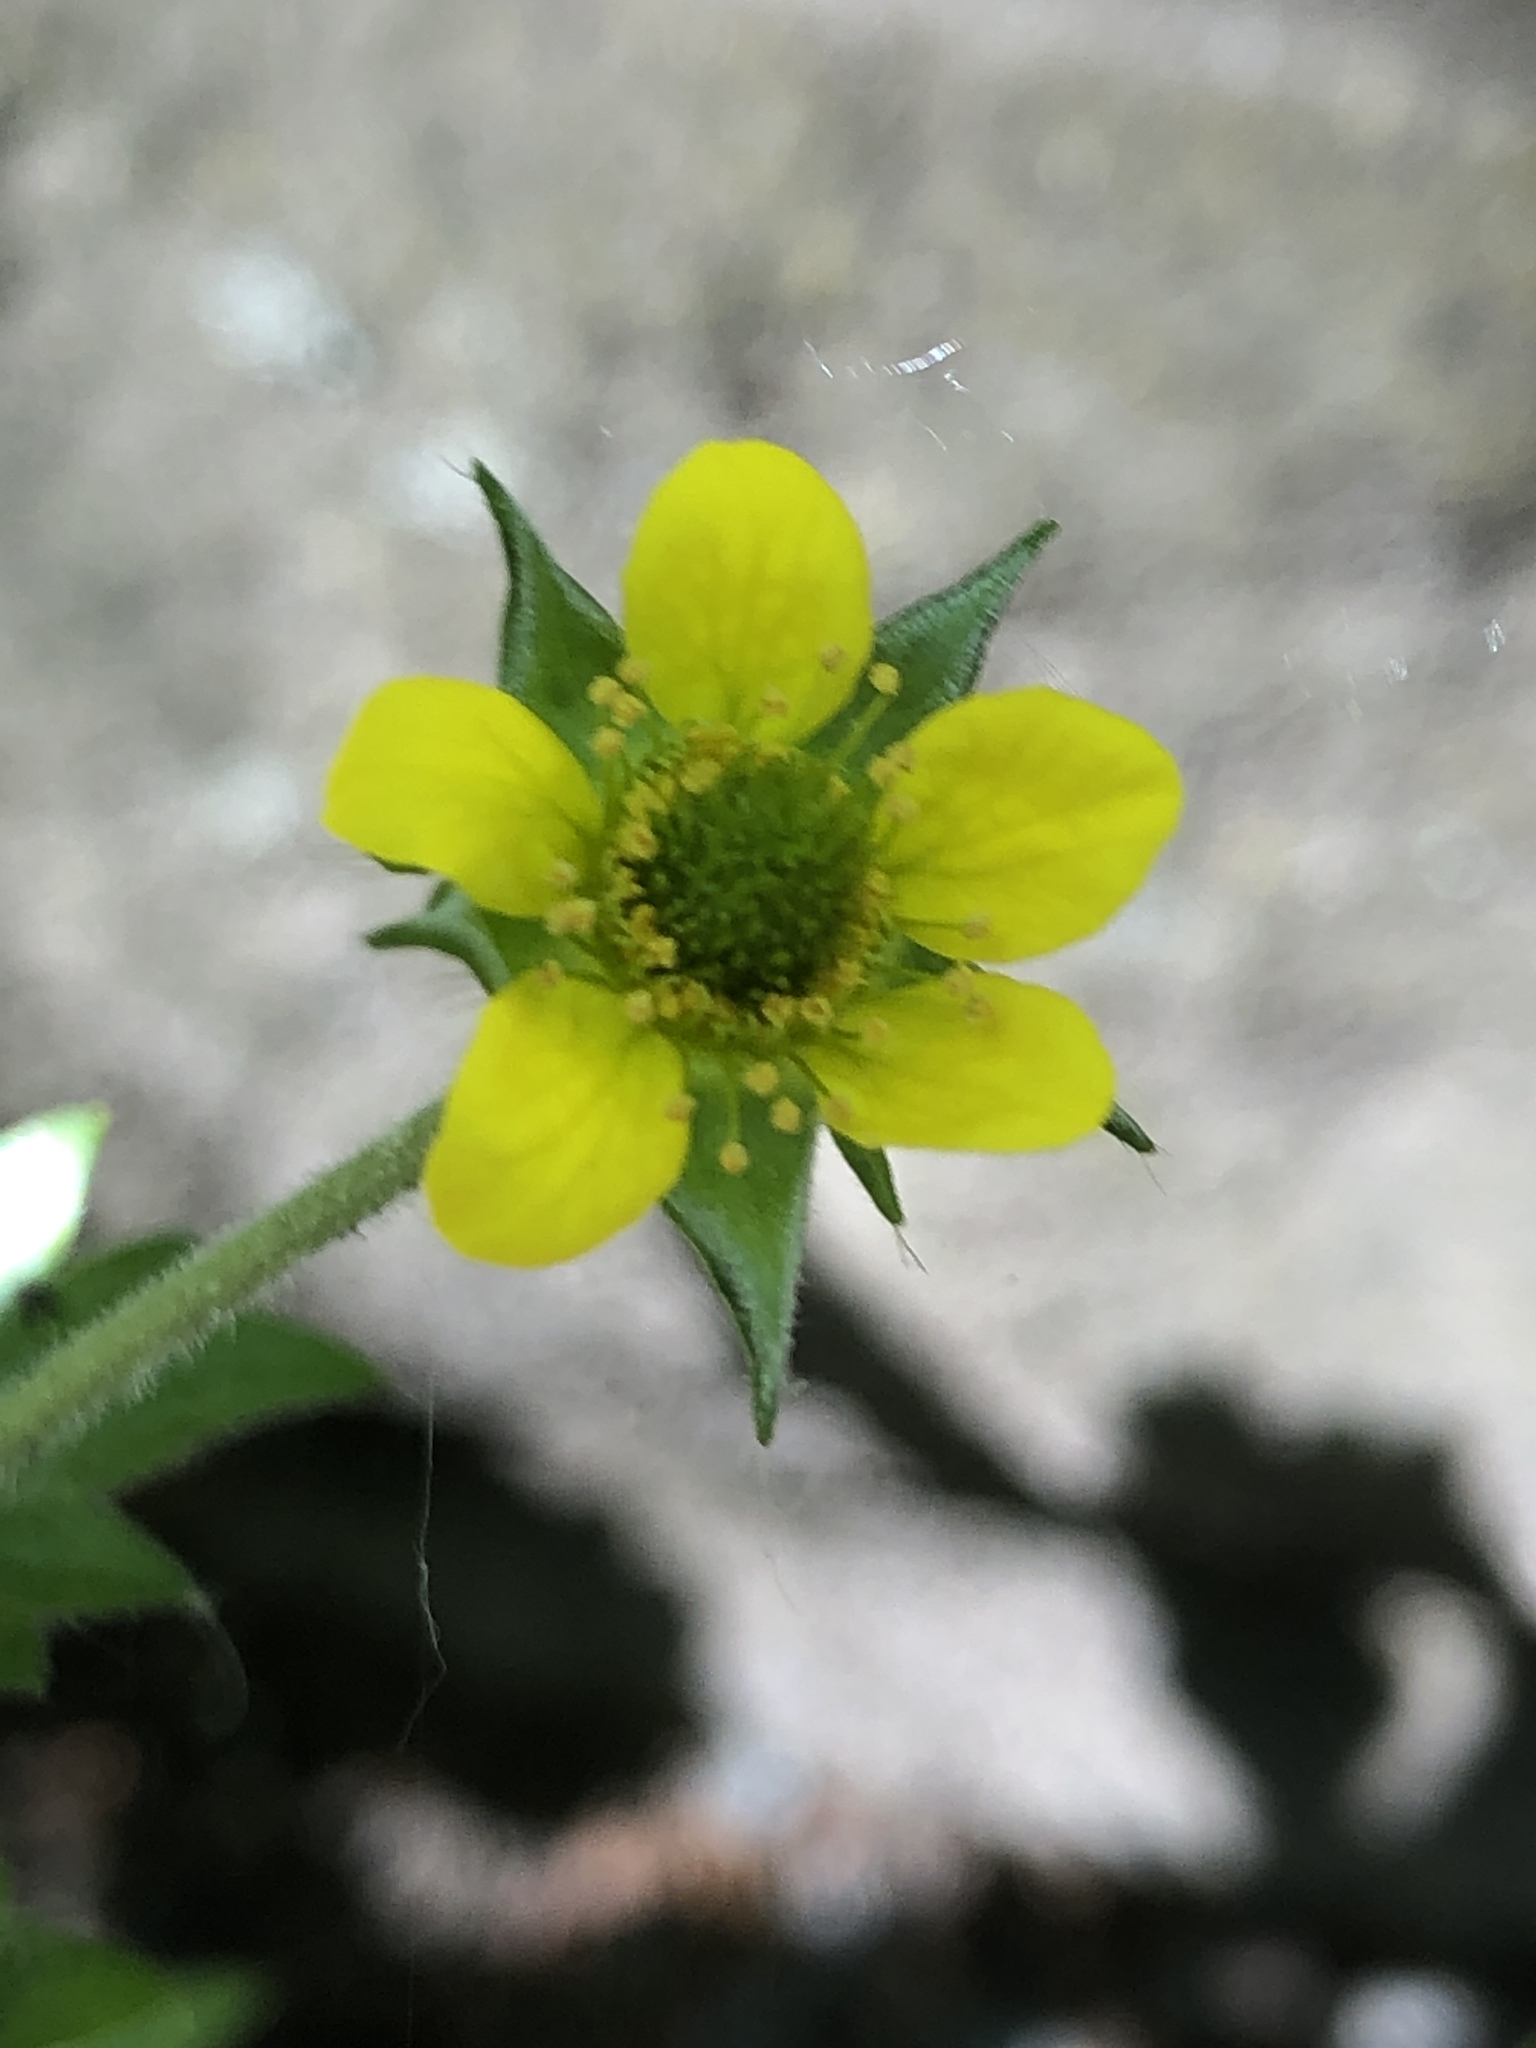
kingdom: Plantae
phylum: Tracheophyta
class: Magnoliopsida
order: Rosales
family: Rosaceae
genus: Geum
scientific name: Geum urbanum
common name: Wood avens
